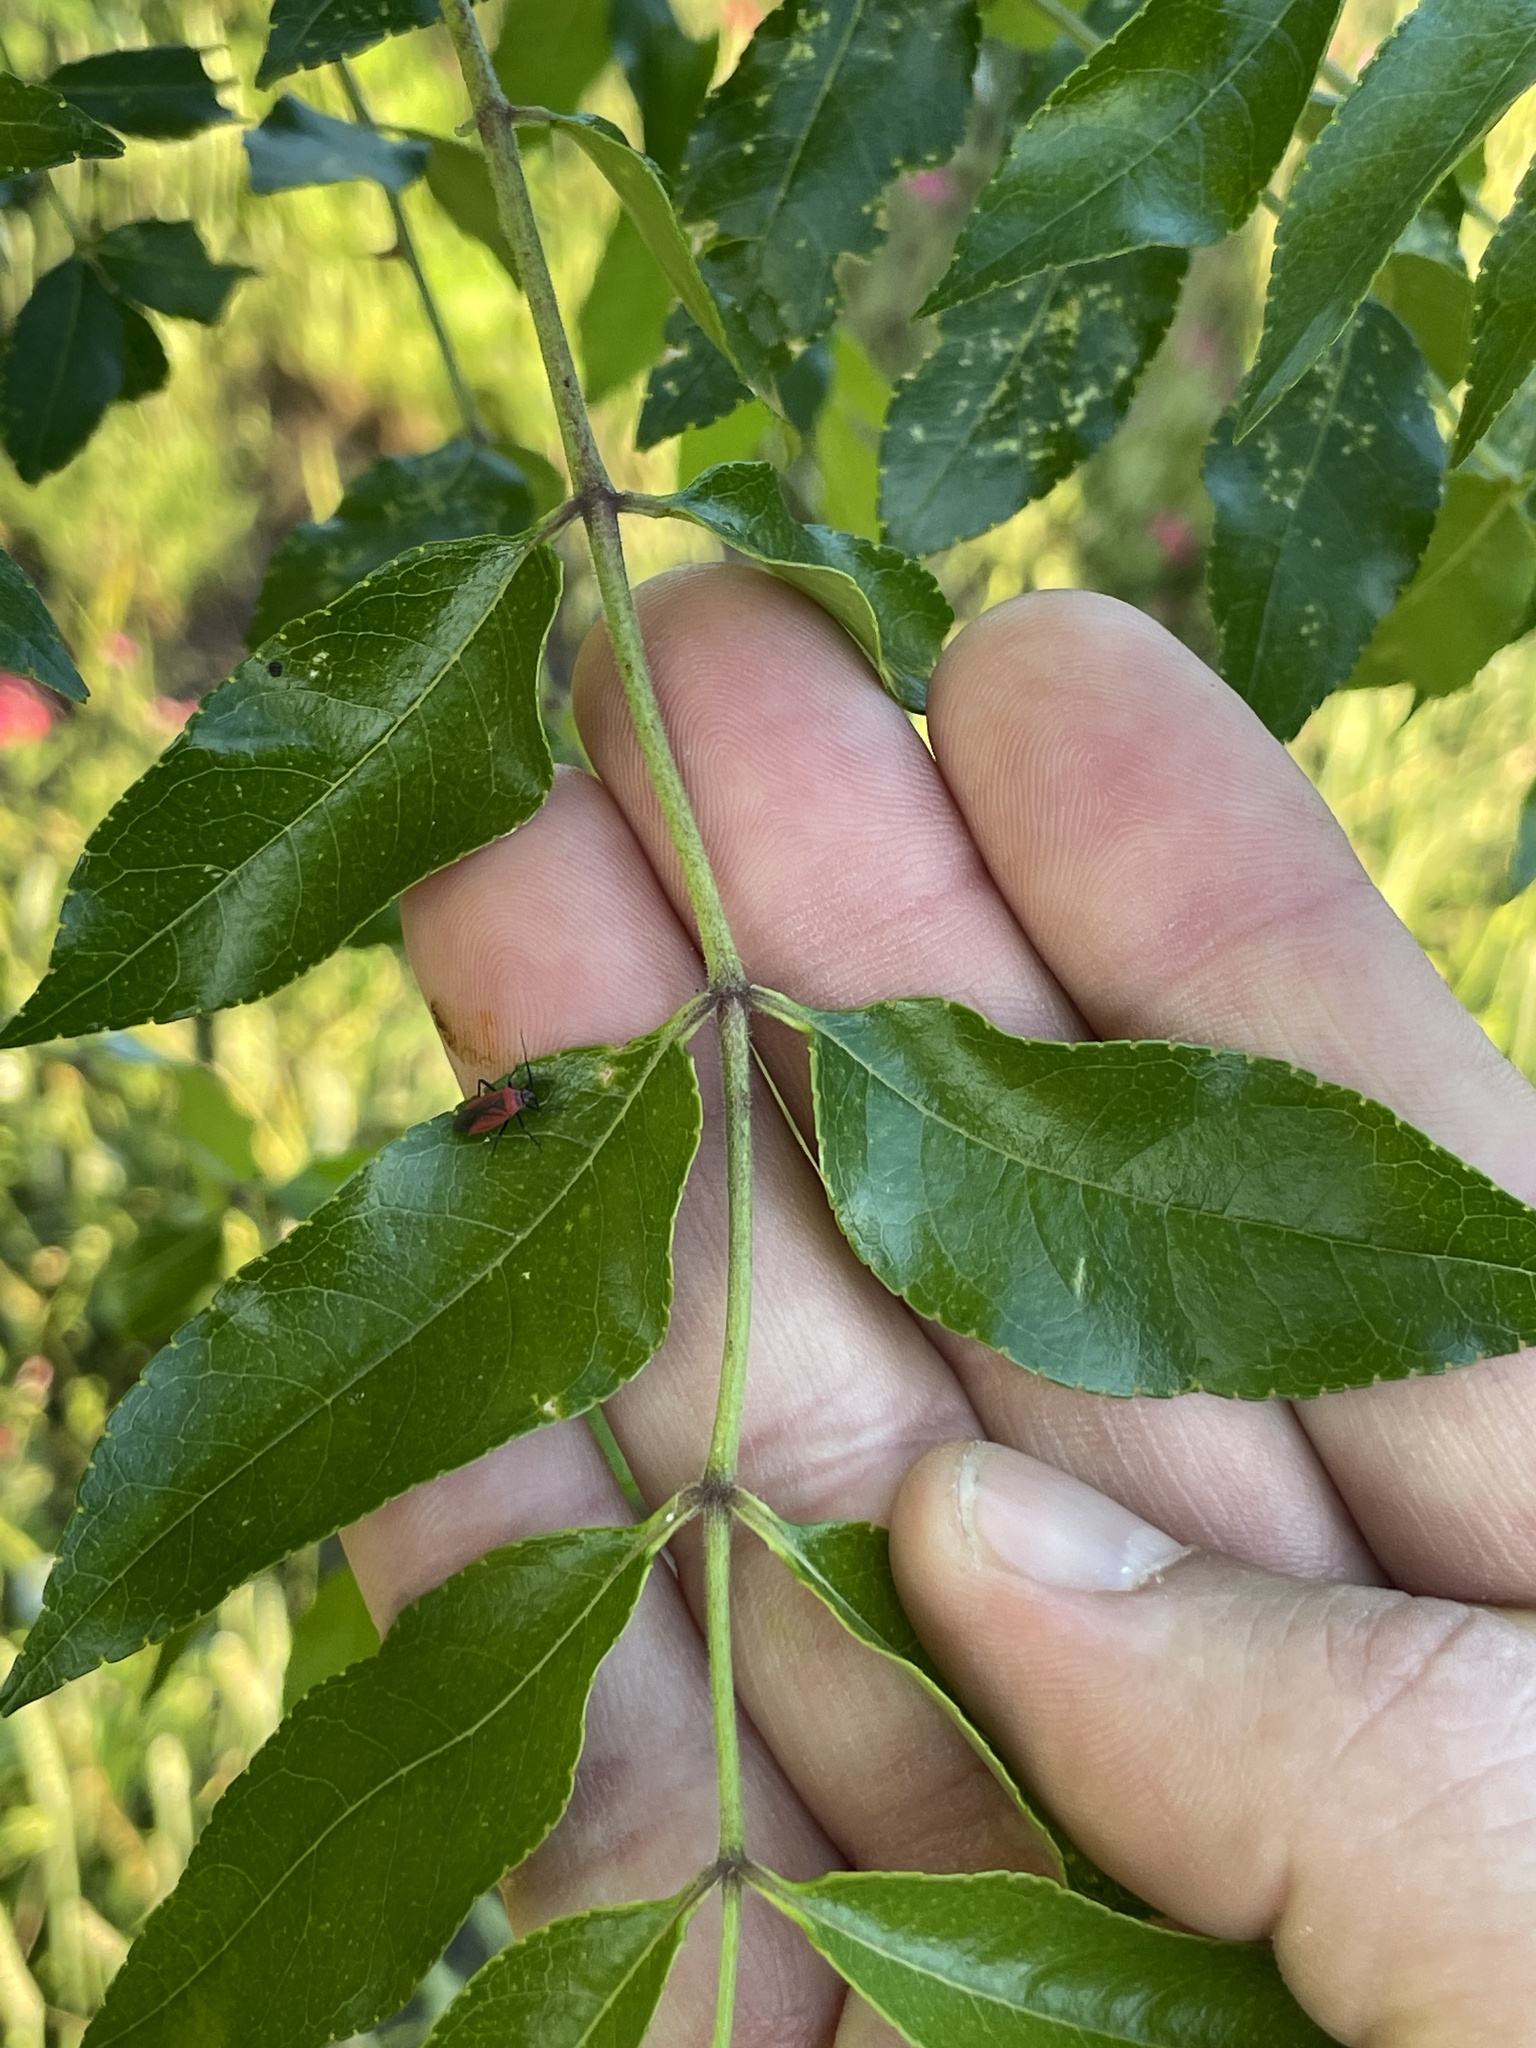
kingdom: Plantae
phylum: Tracheophyta
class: Magnoliopsida
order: Sapindales
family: Rutaceae
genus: Zanthoxylum
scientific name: Zanthoxylum clava-herculis
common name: Hercules'-club
